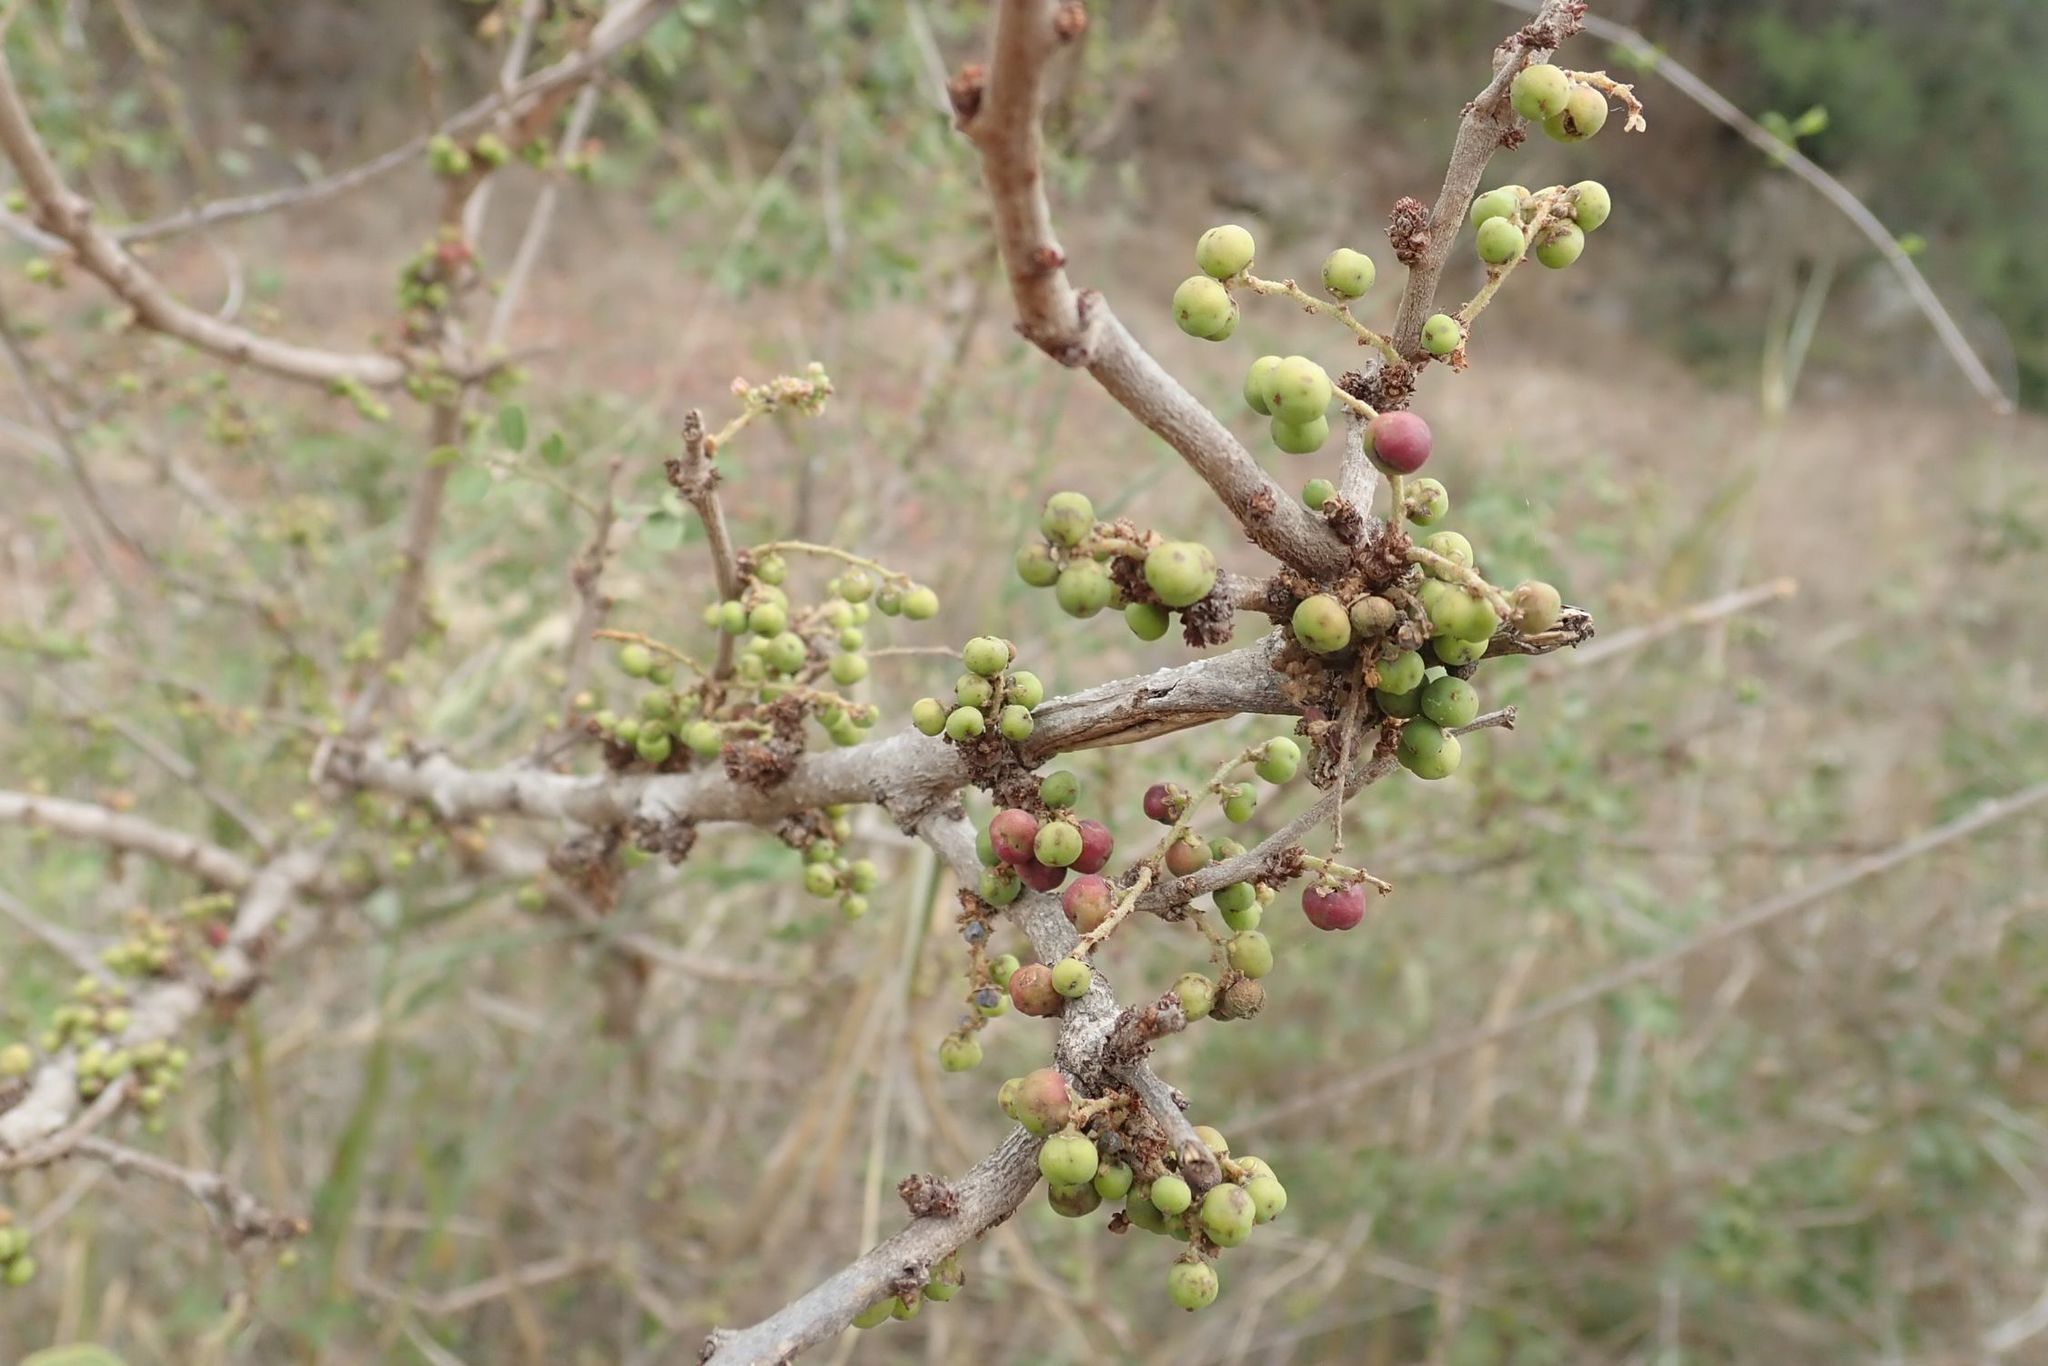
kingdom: Plantae
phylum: Tracheophyta
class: Magnoliopsida
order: Malpighiales
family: Phyllanthaceae
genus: Phyllanthus
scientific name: Phyllanthus reticulatus
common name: Potato bush
